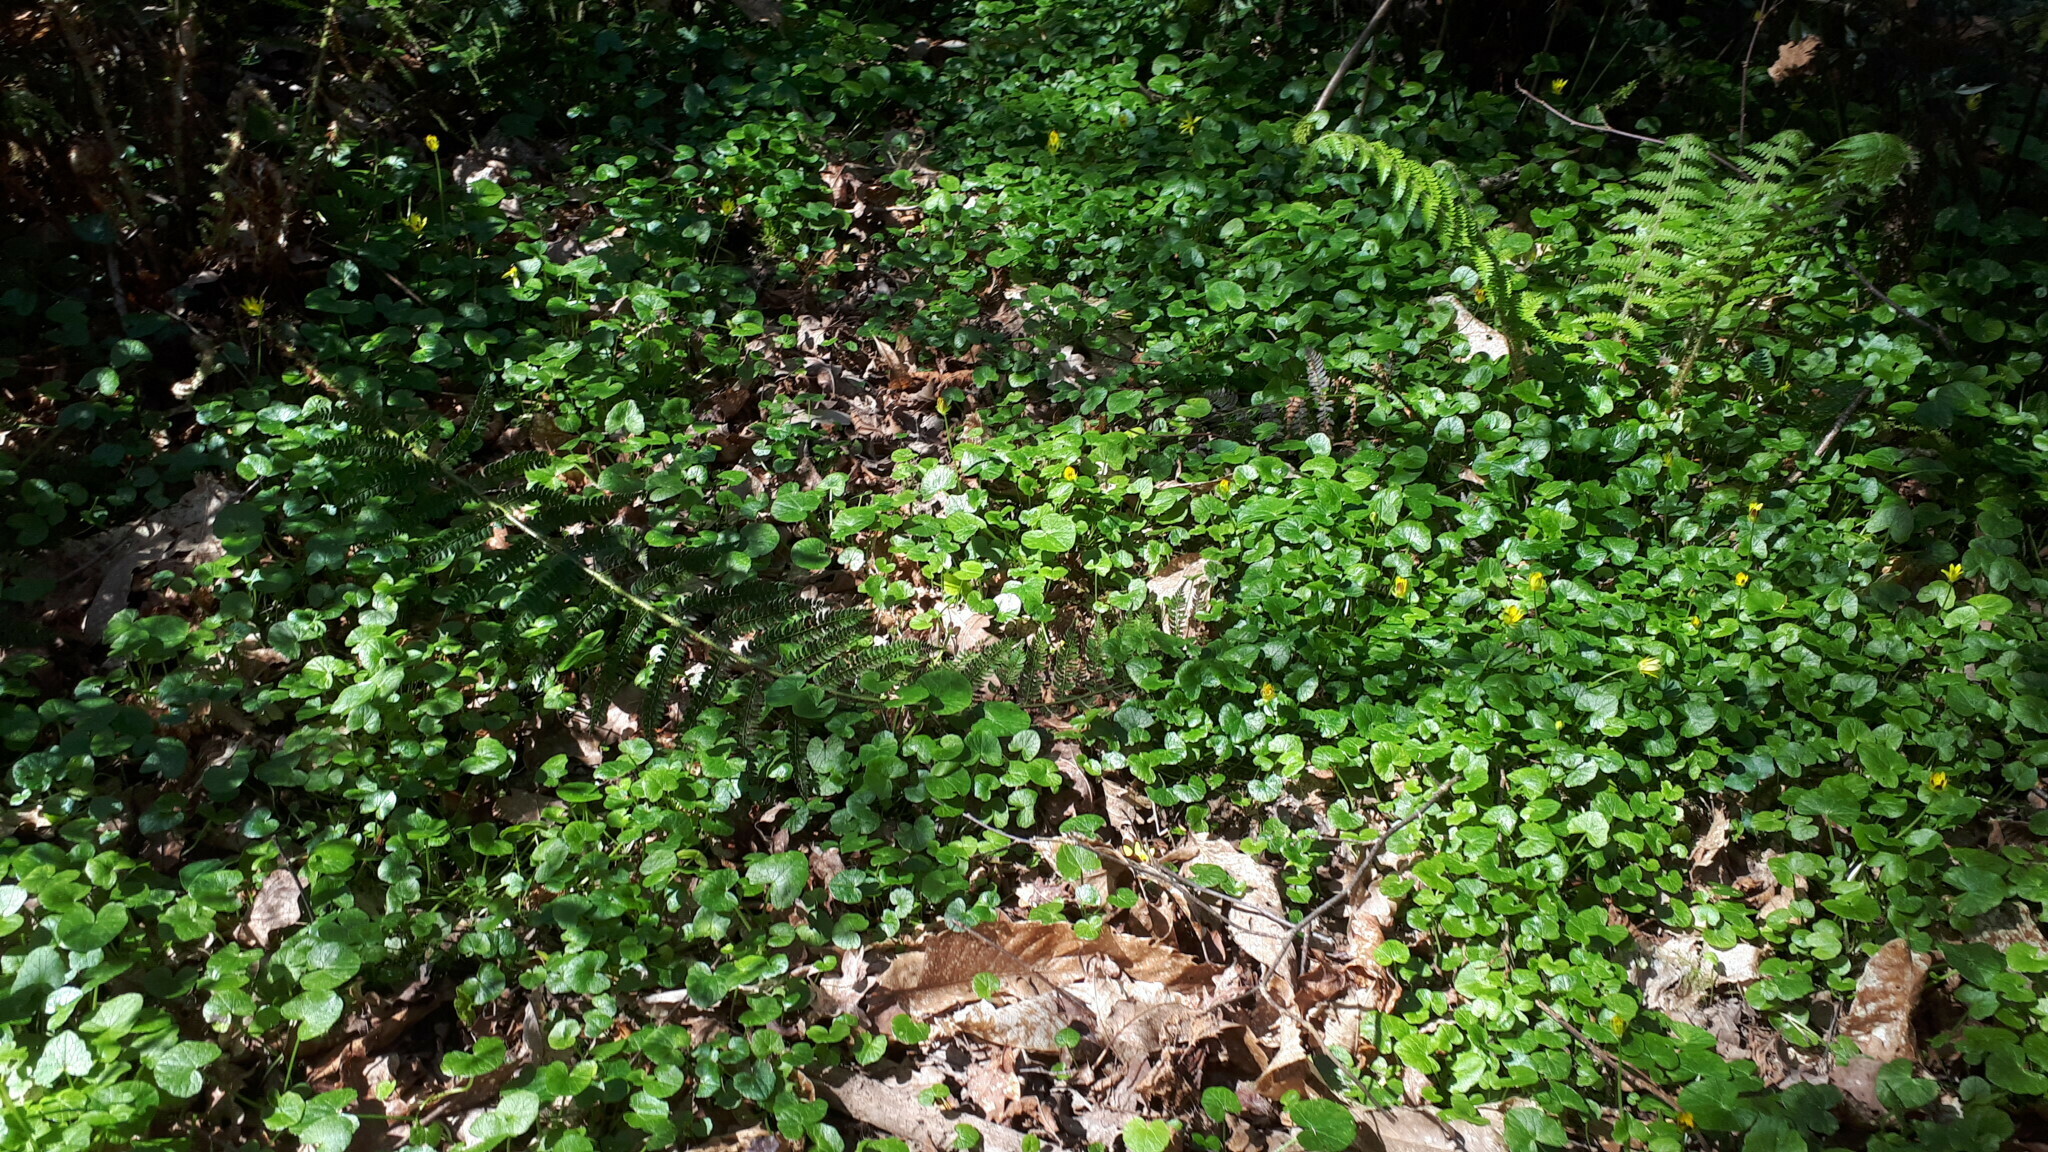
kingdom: Plantae
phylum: Tracheophyta
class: Magnoliopsida
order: Ranunculales
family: Ranunculaceae
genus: Ficaria
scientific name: Ficaria verna
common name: Lesser celandine
